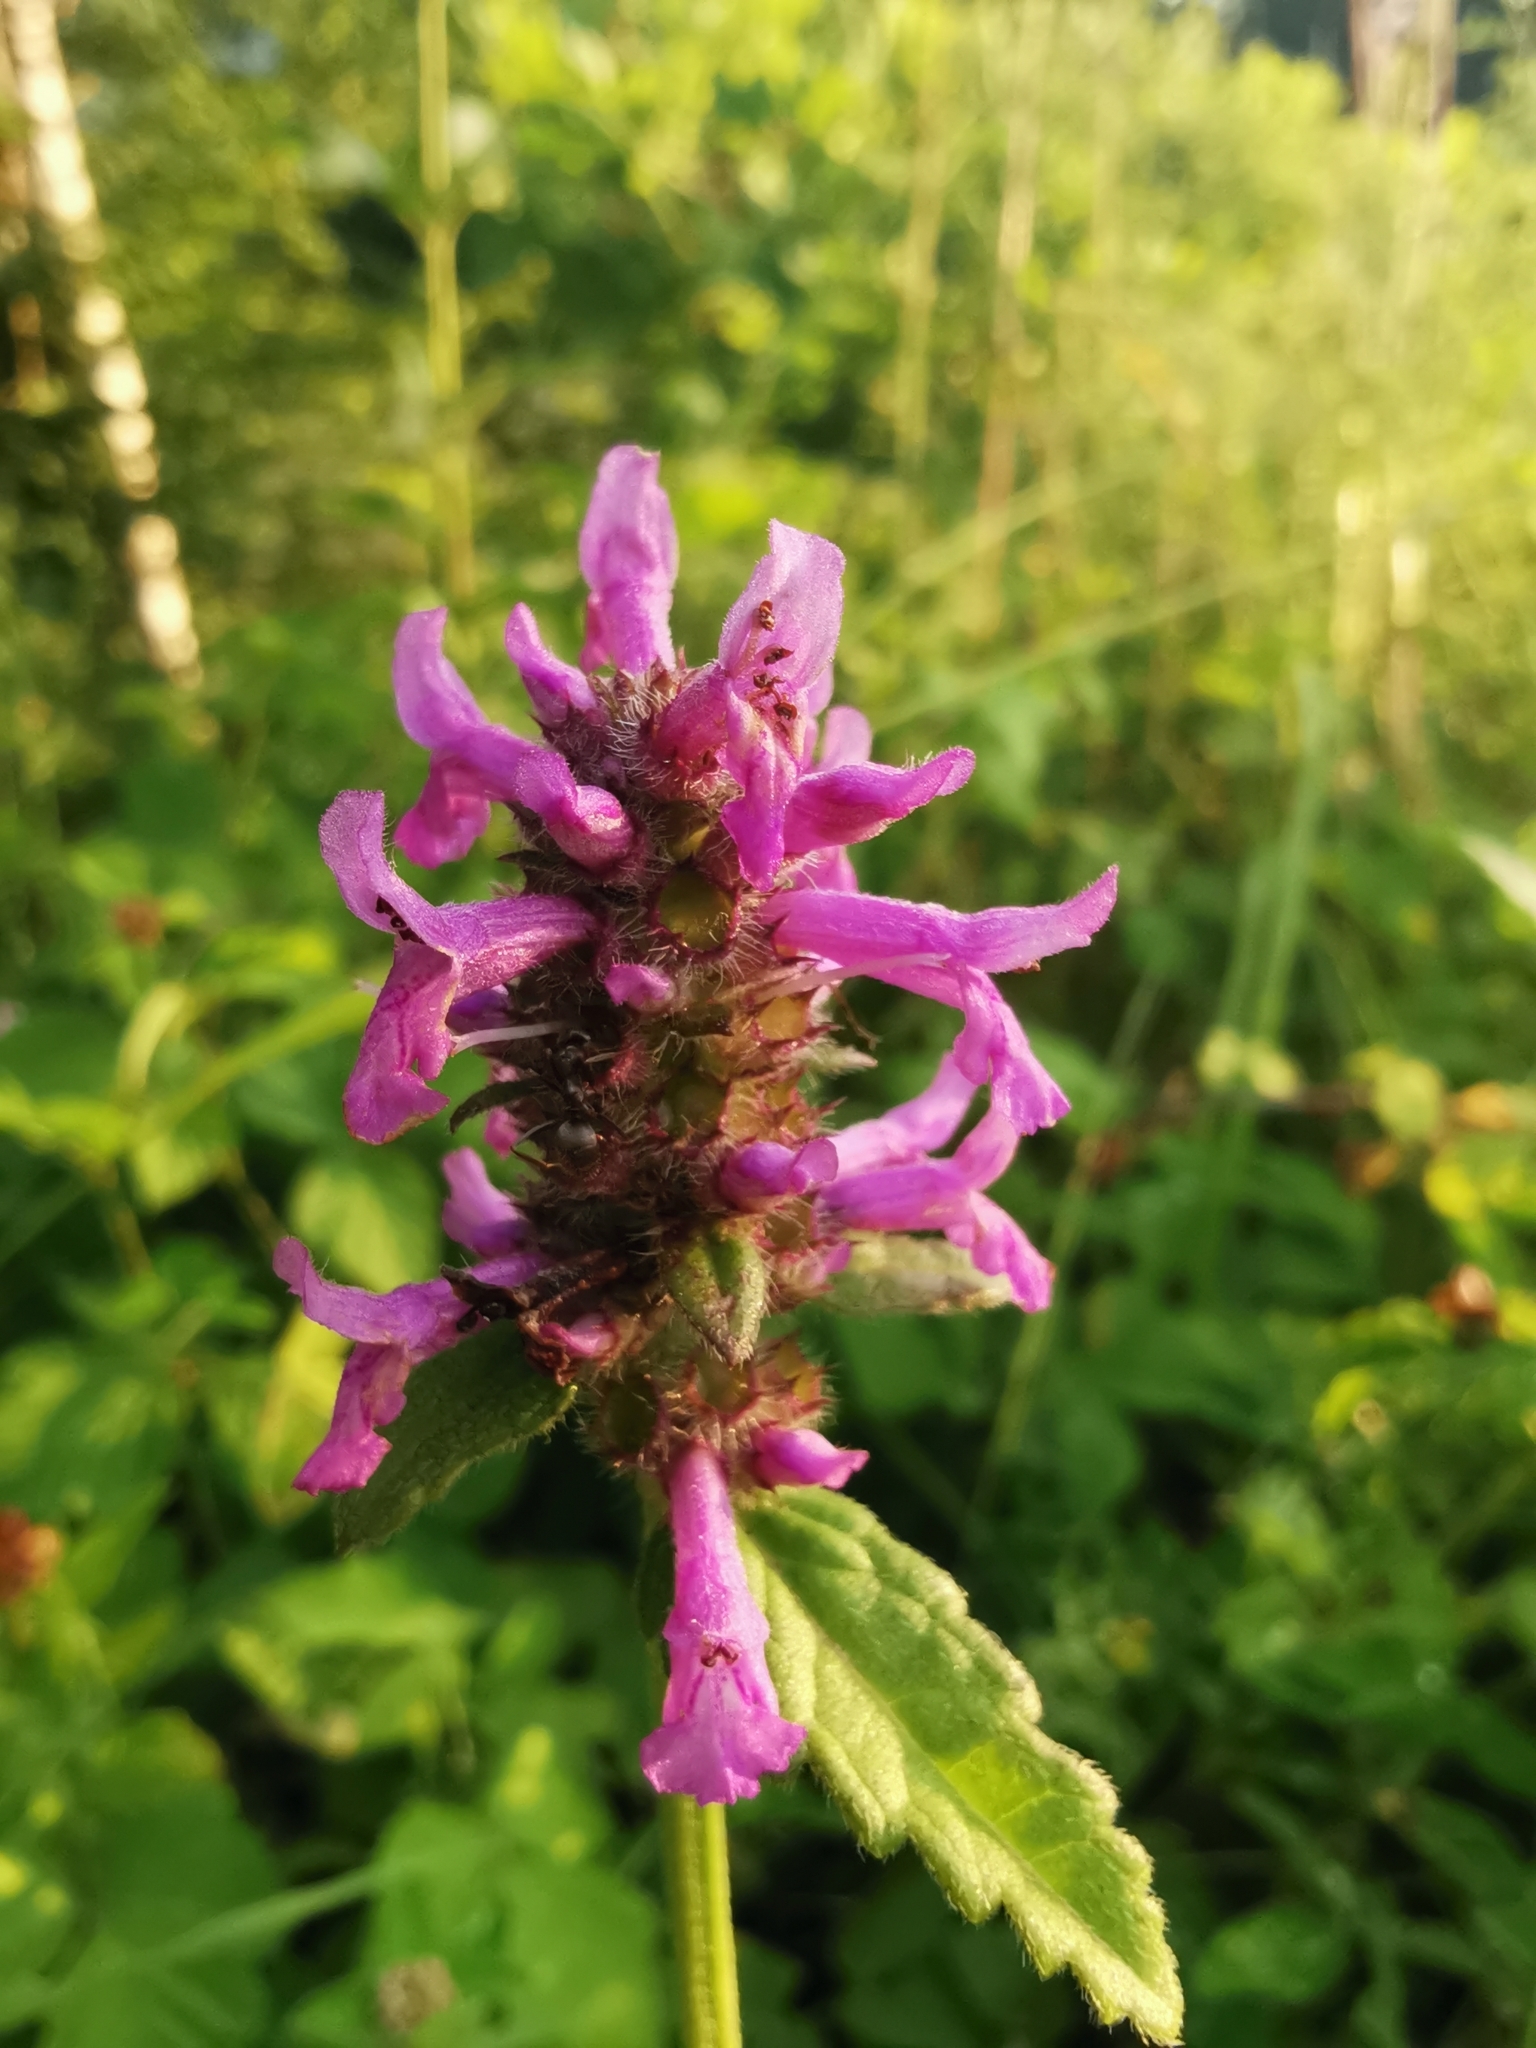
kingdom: Plantae
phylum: Tracheophyta
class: Magnoliopsida
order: Lamiales
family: Lamiaceae
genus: Betonica
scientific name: Betonica officinalis
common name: Bishop's-wort
